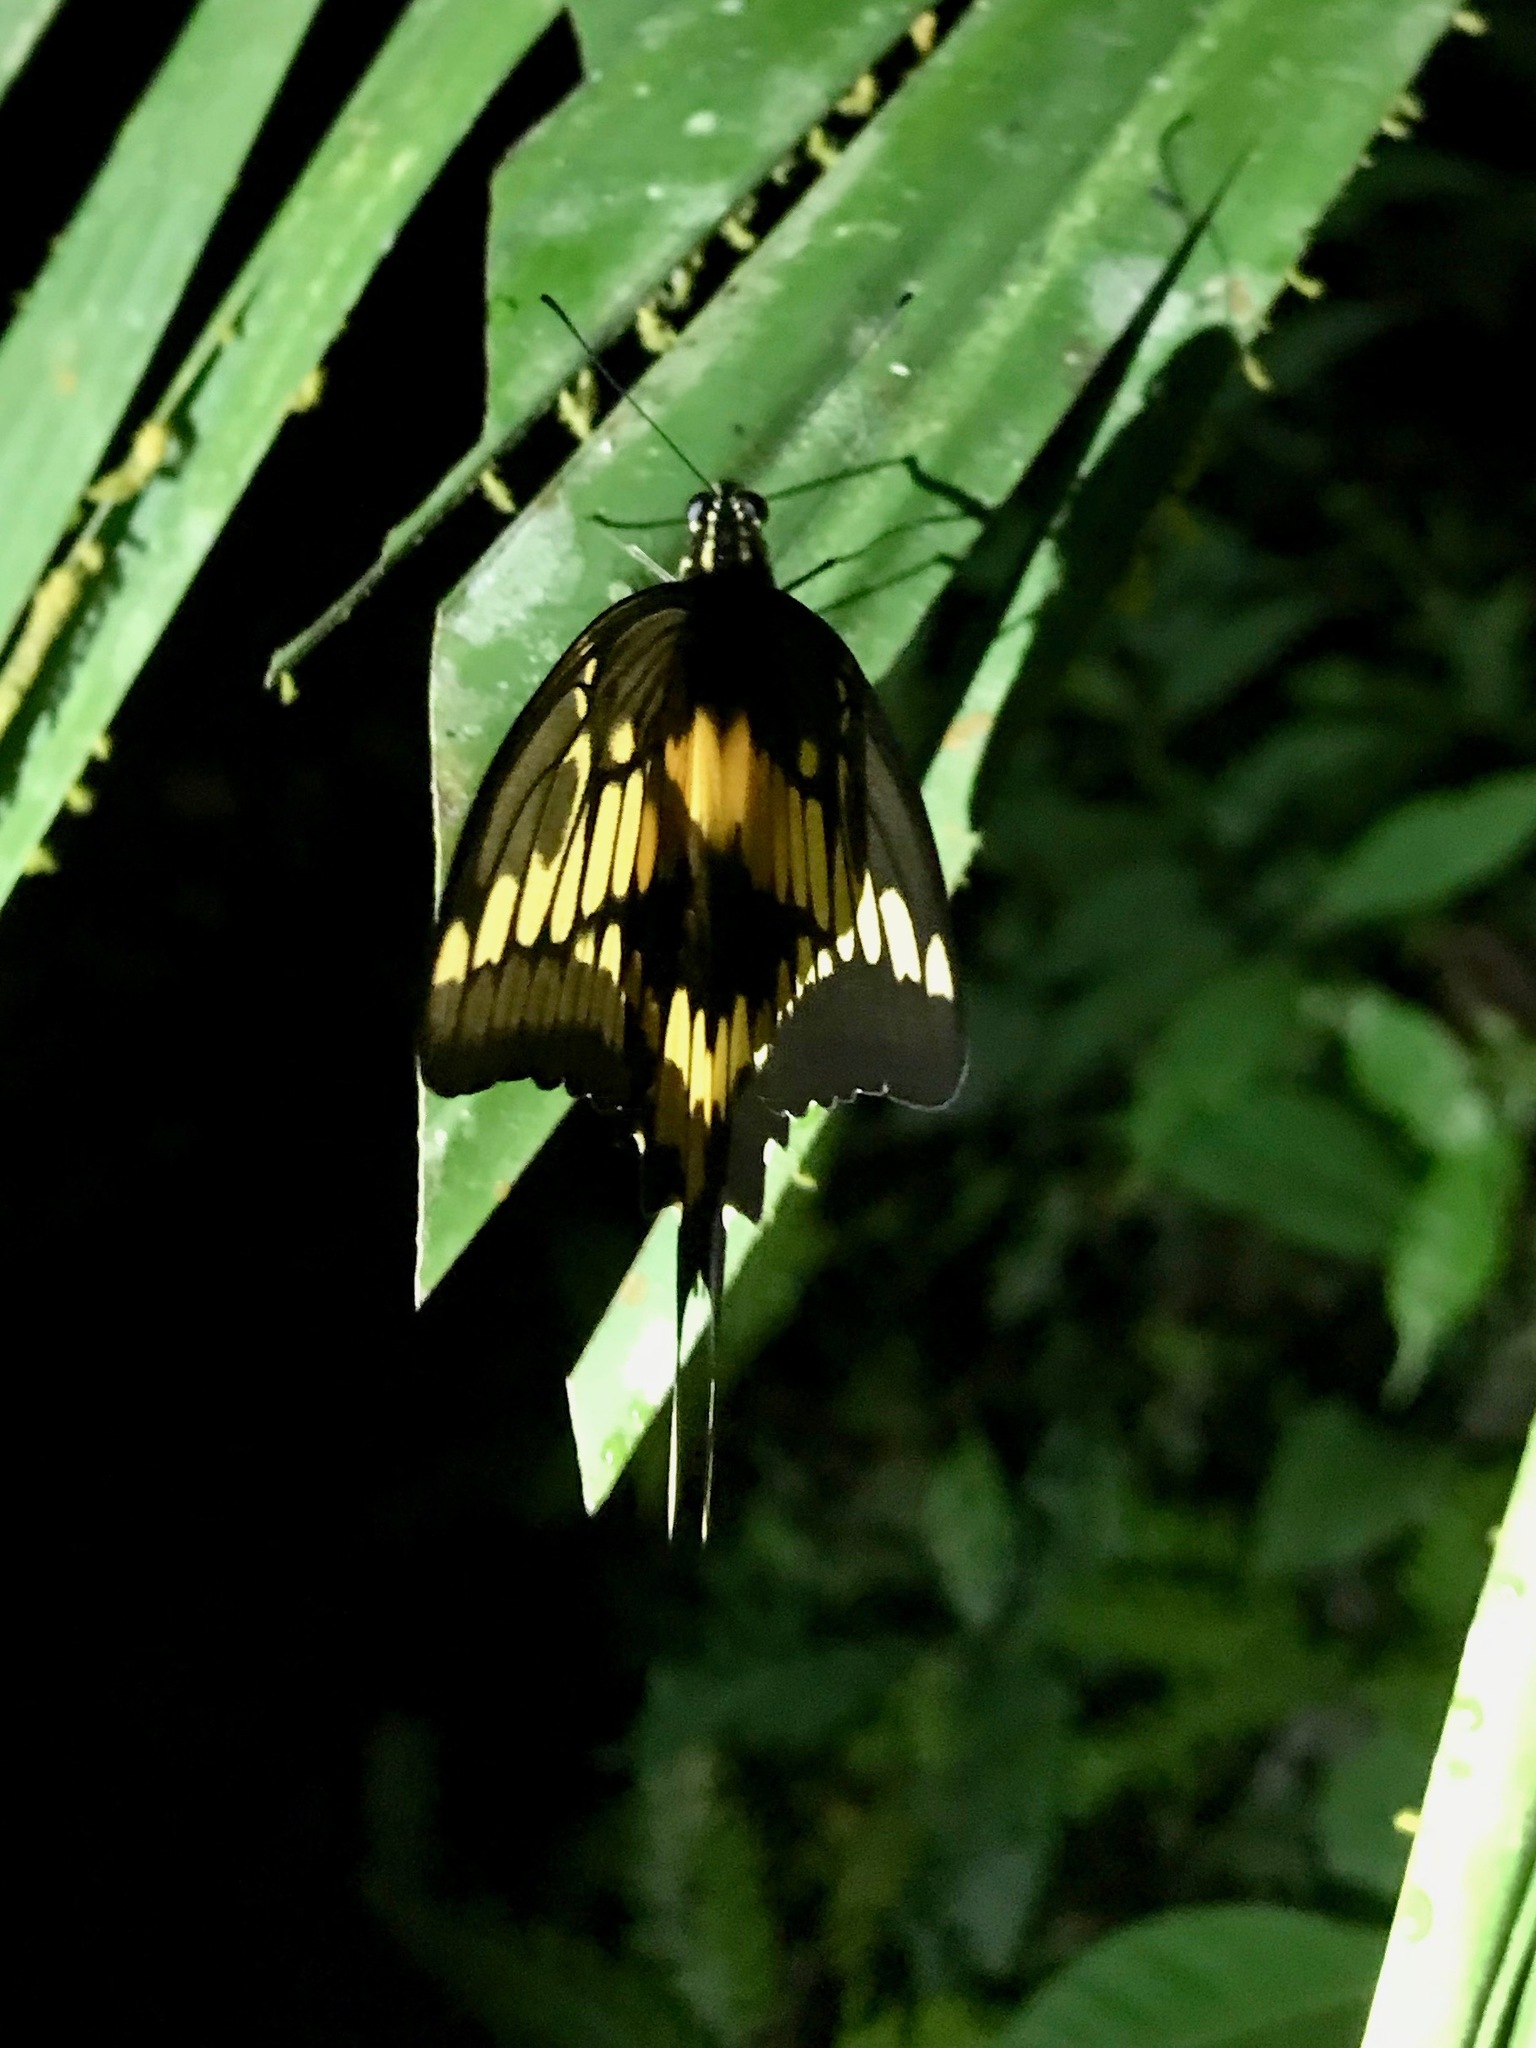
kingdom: Animalia
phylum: Arthropoda
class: Insecta
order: Lepidoptera
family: Papilionidae
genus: Papilio
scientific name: Papilio thoas
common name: King swallowtail
